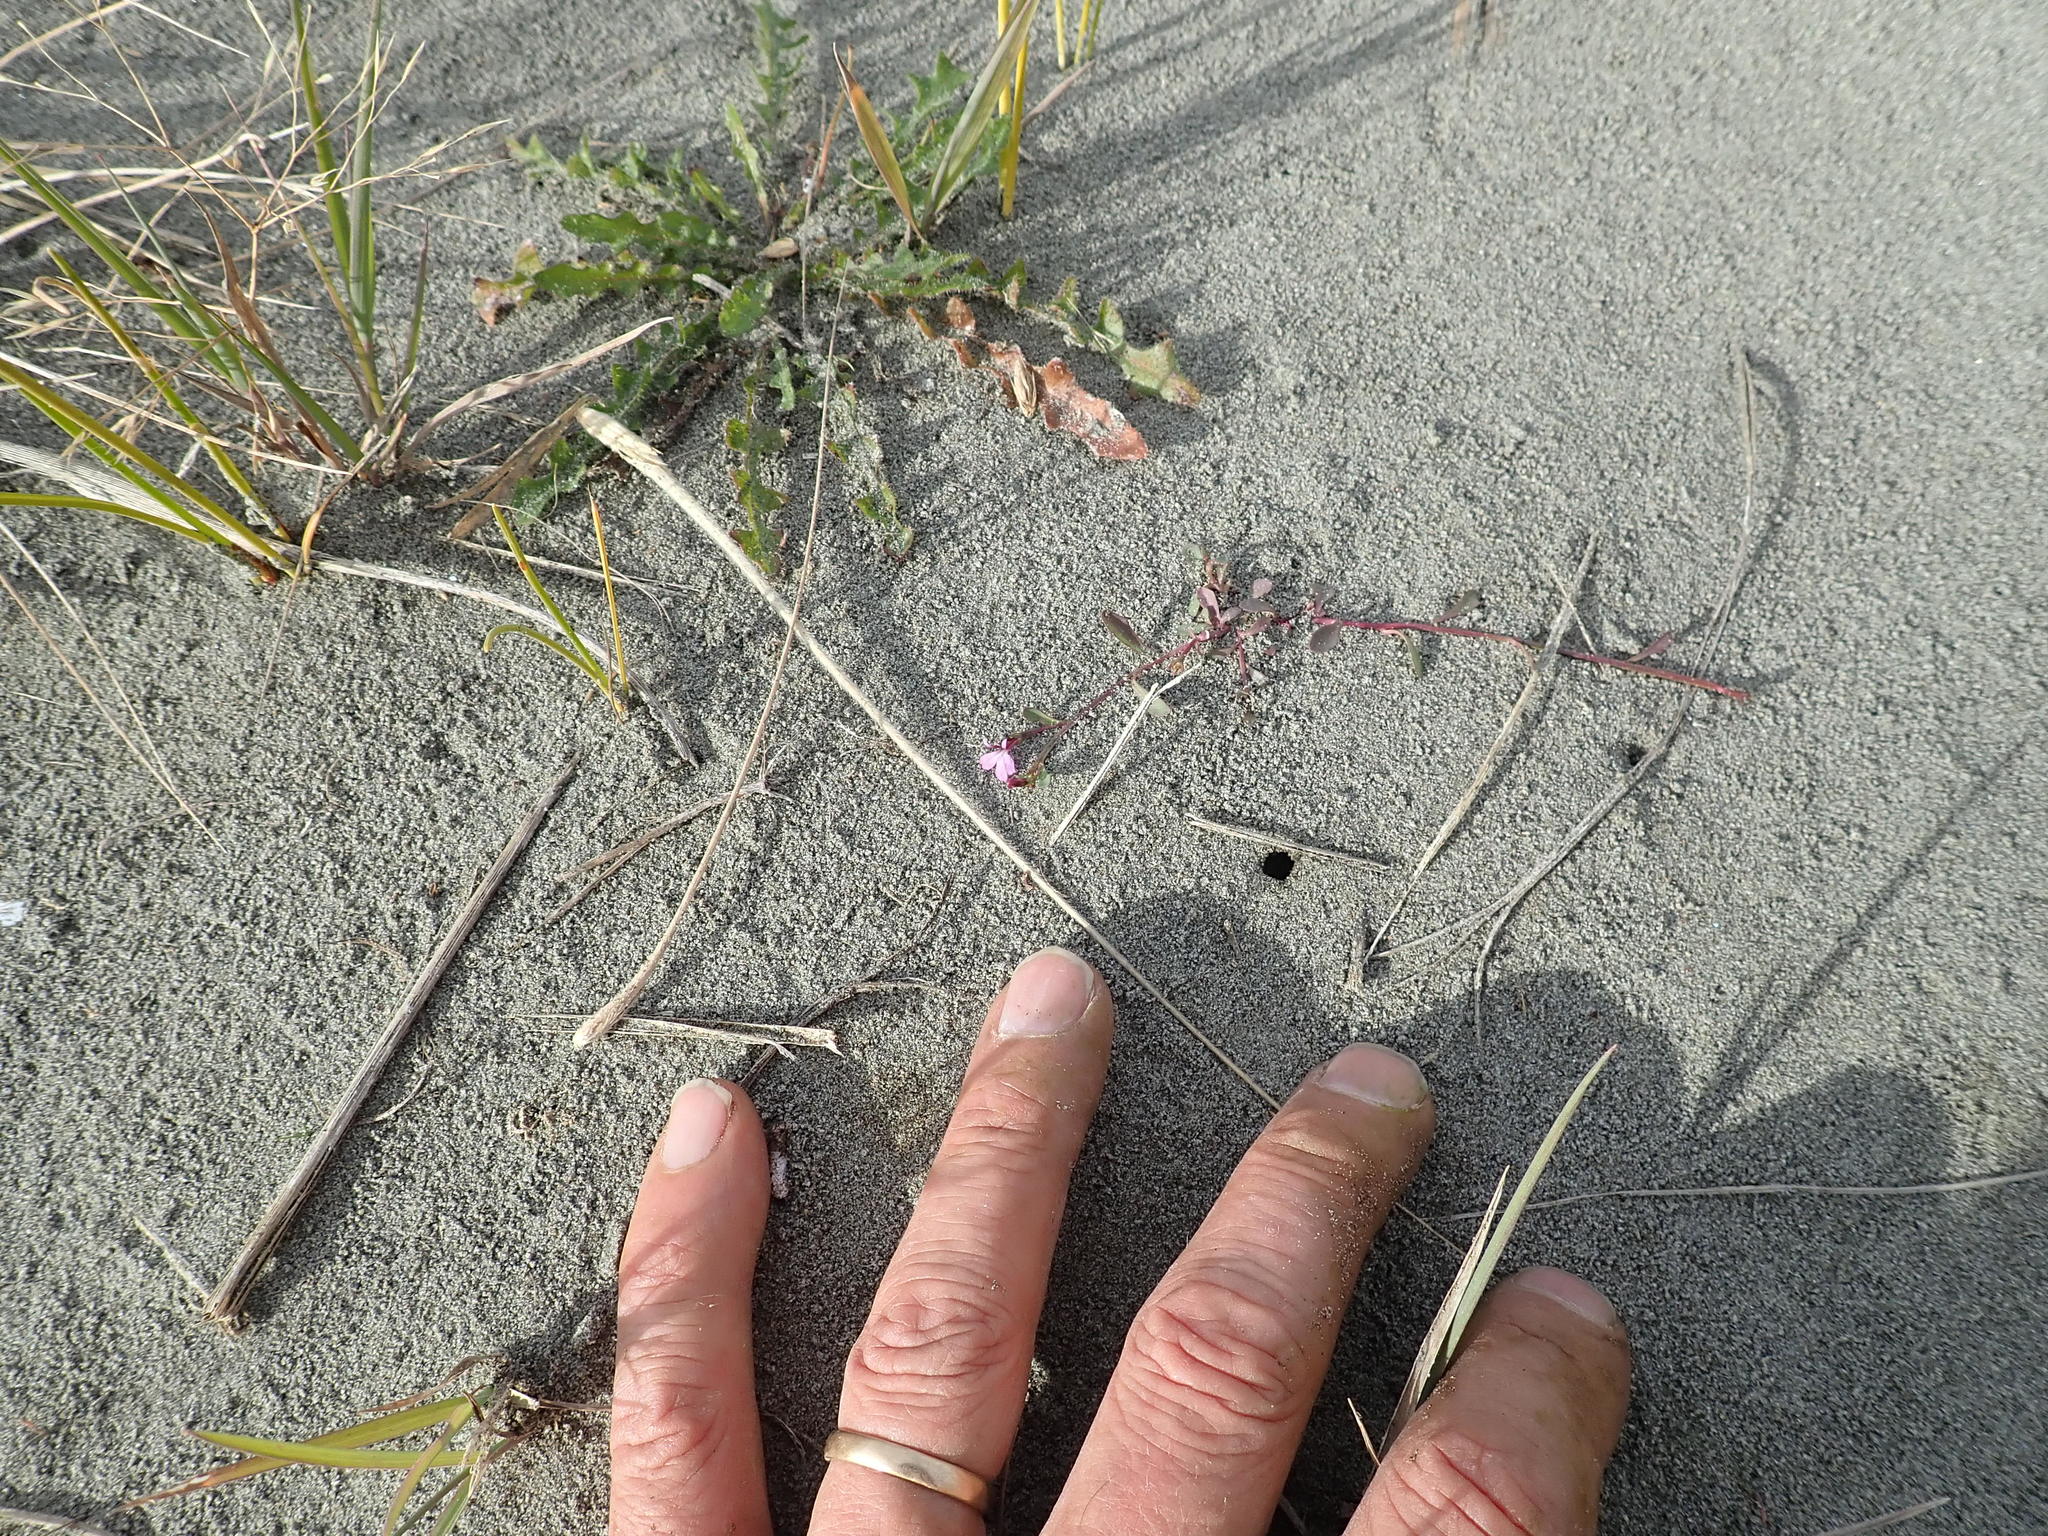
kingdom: Plantae
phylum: Tracheophyta
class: Magnoliopsida
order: Asterales
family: Campanulaceae
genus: Lobelia
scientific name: Lobelia anceps
